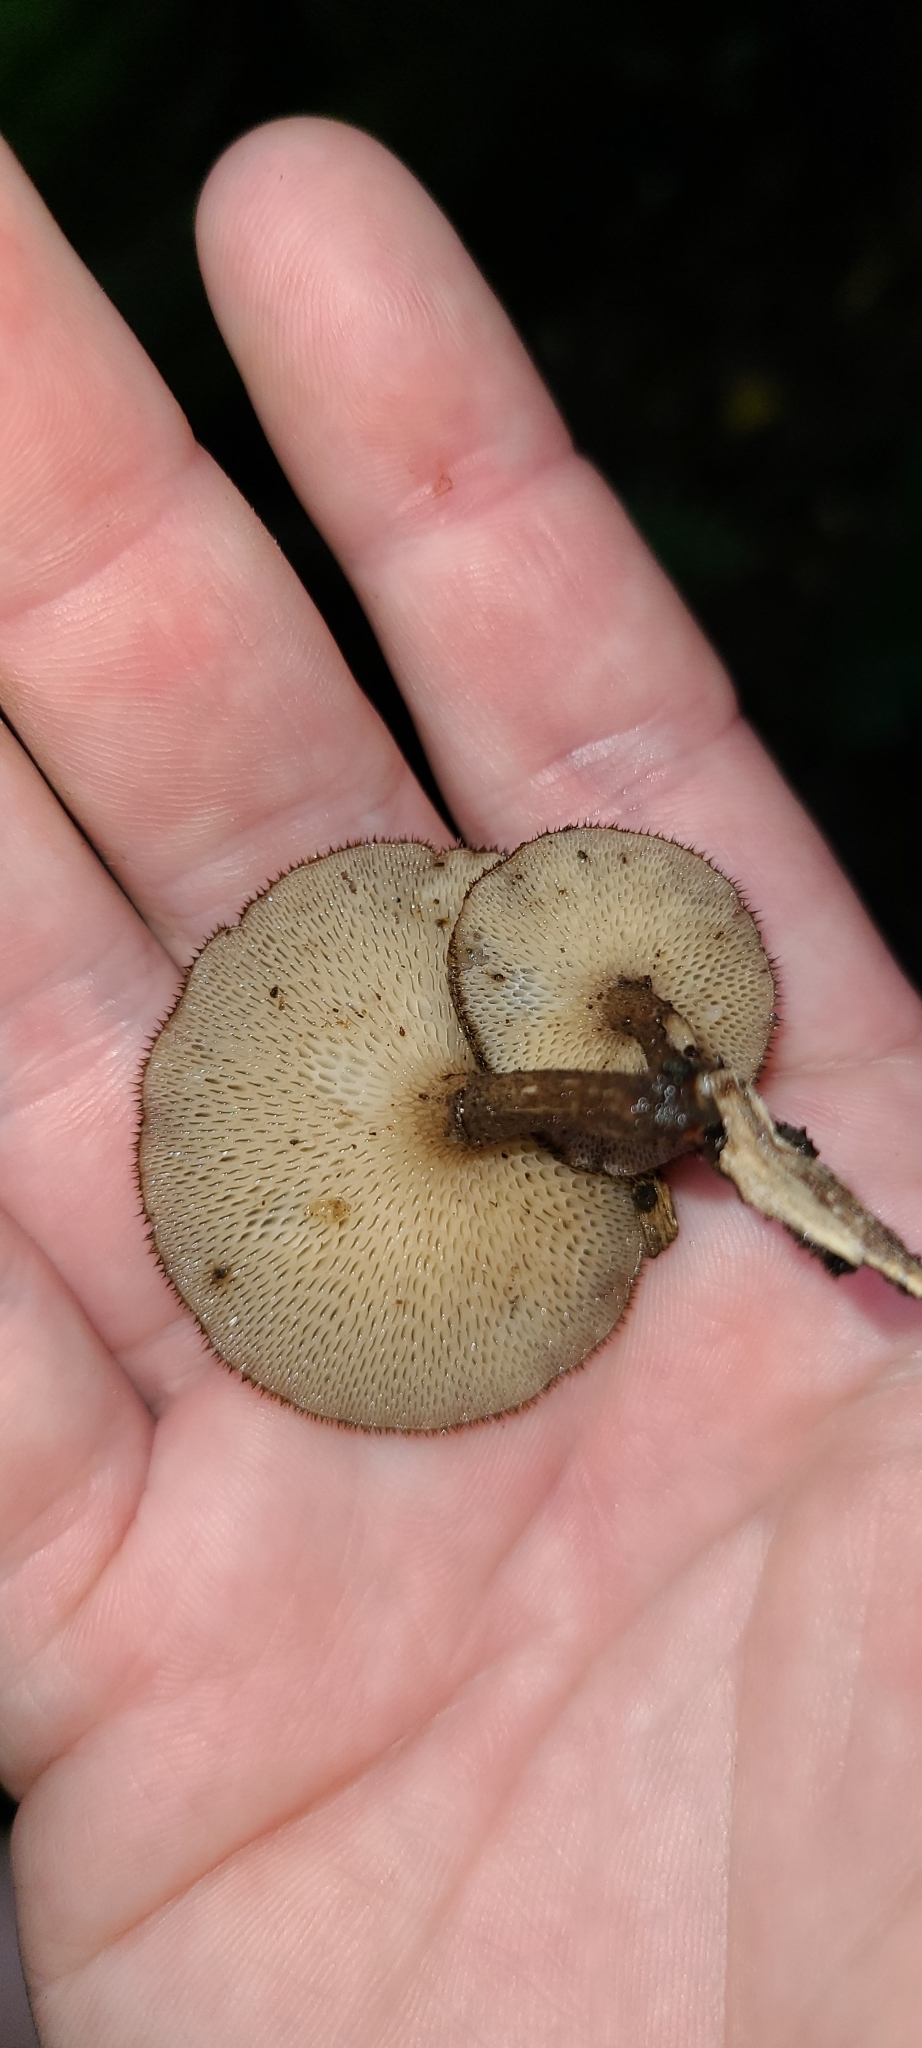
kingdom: Fungi
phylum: Basidiomycota
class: Agaricomycetes
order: Polyporales
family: Polyporaceae
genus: Lentinus
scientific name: Lentinus arcularius
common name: Spring polypore
